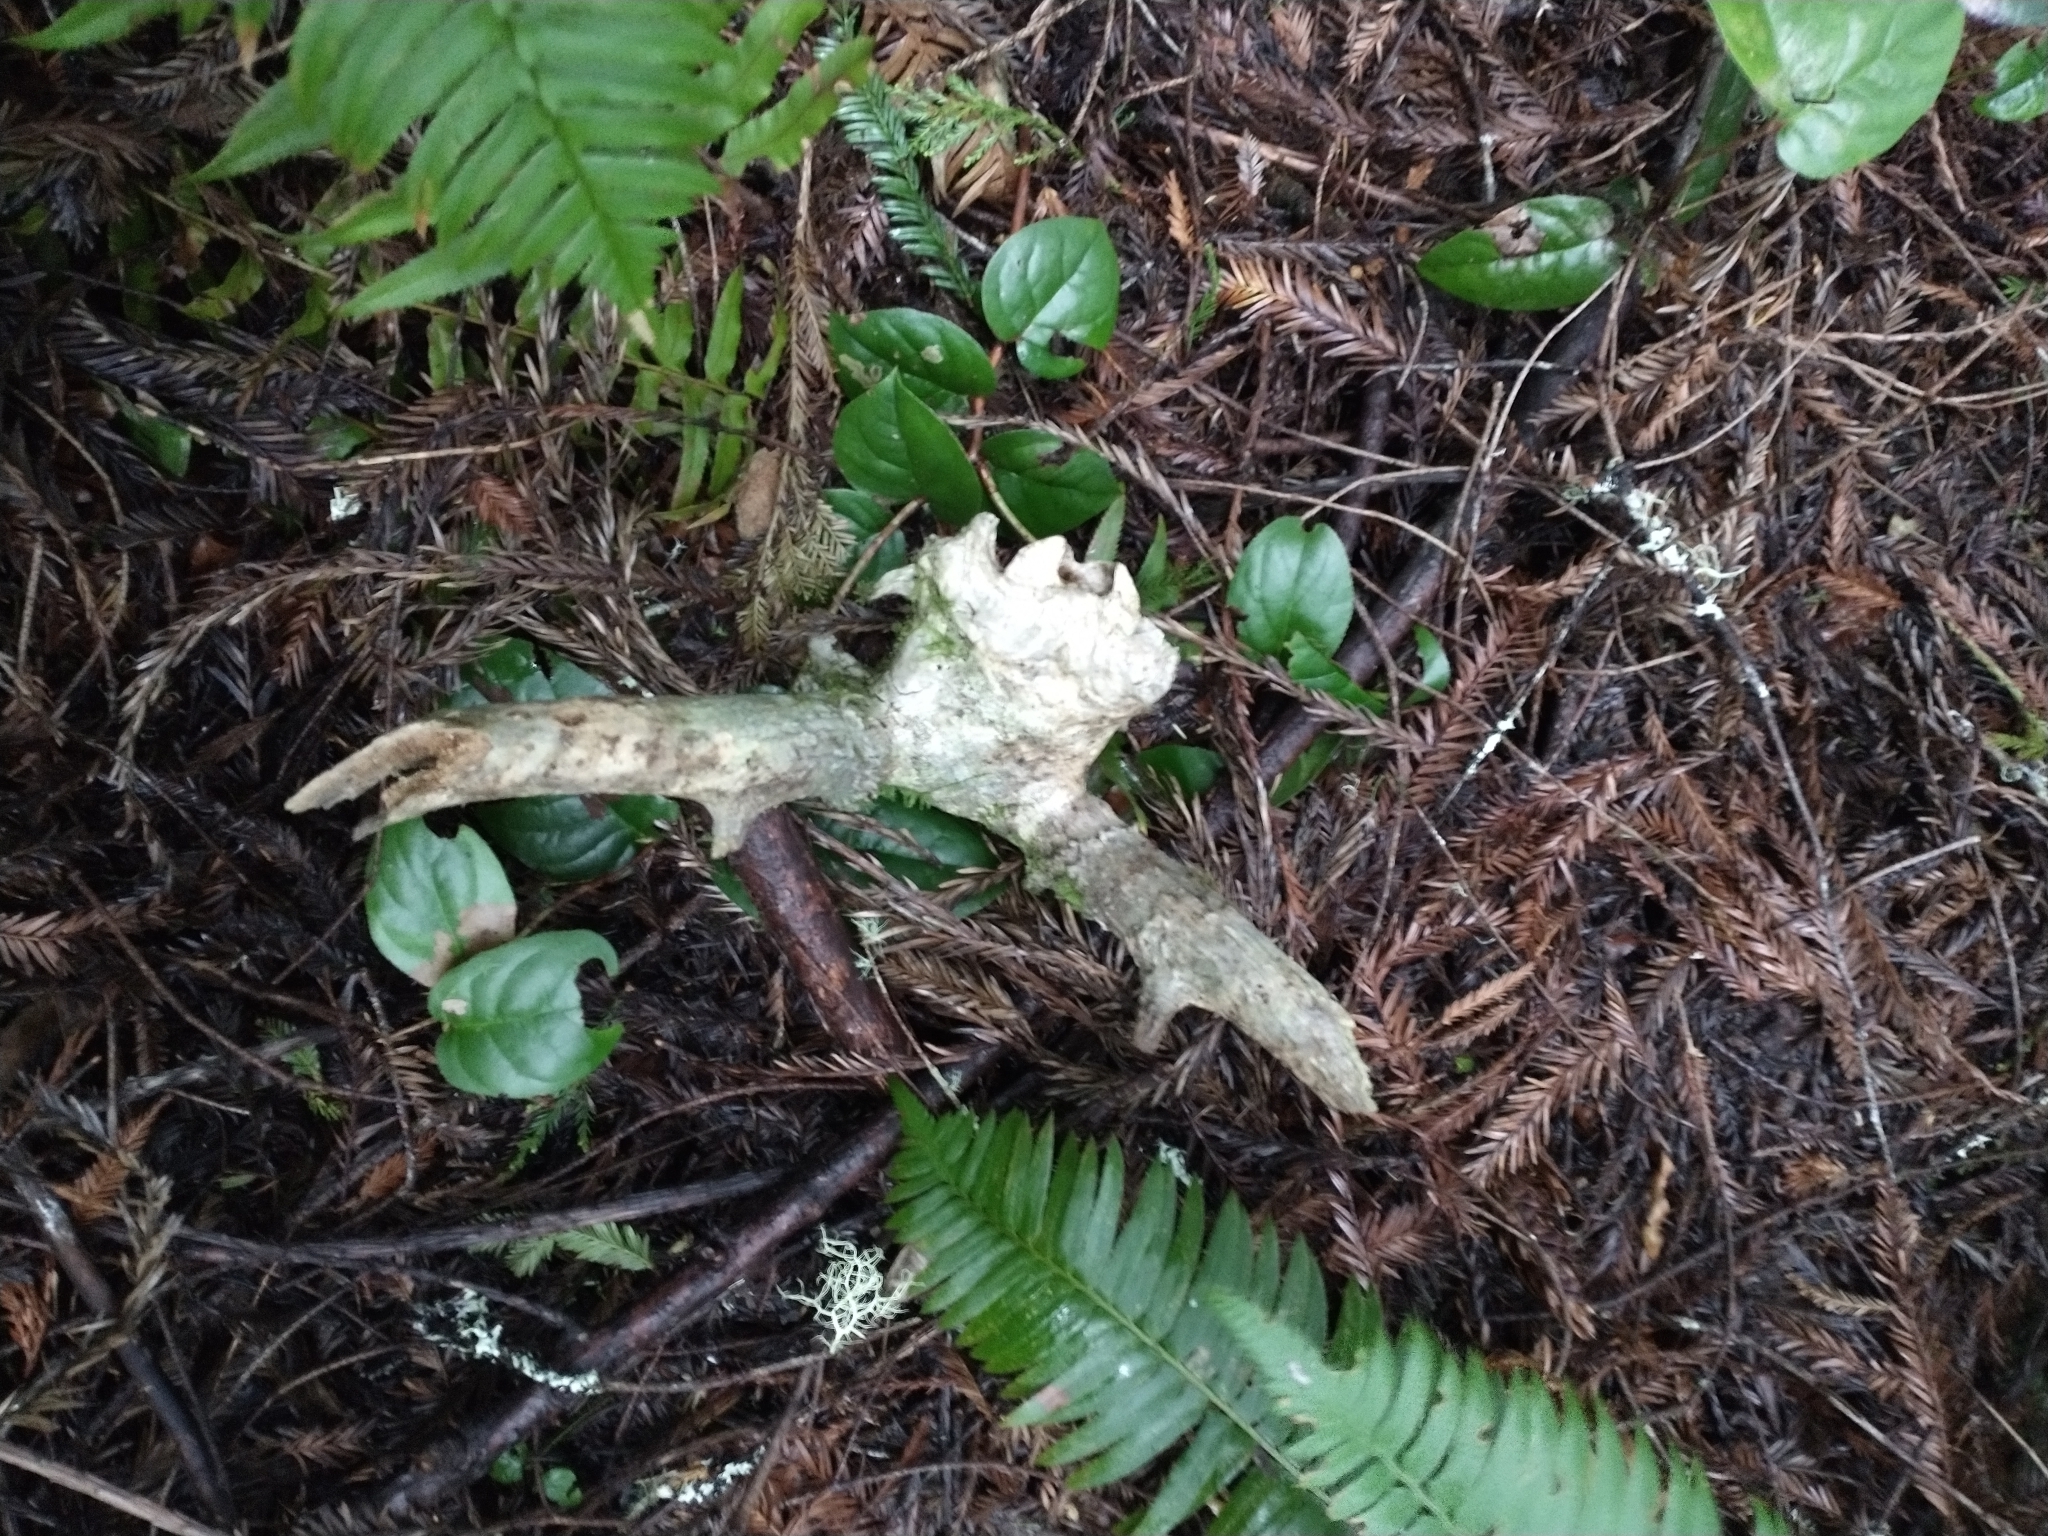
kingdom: Animalia
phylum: Chordata
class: Mammalia
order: Artiodactyla
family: Cervidae
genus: Odocoileus
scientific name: Odocoileus hemionus
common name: Mule deer
